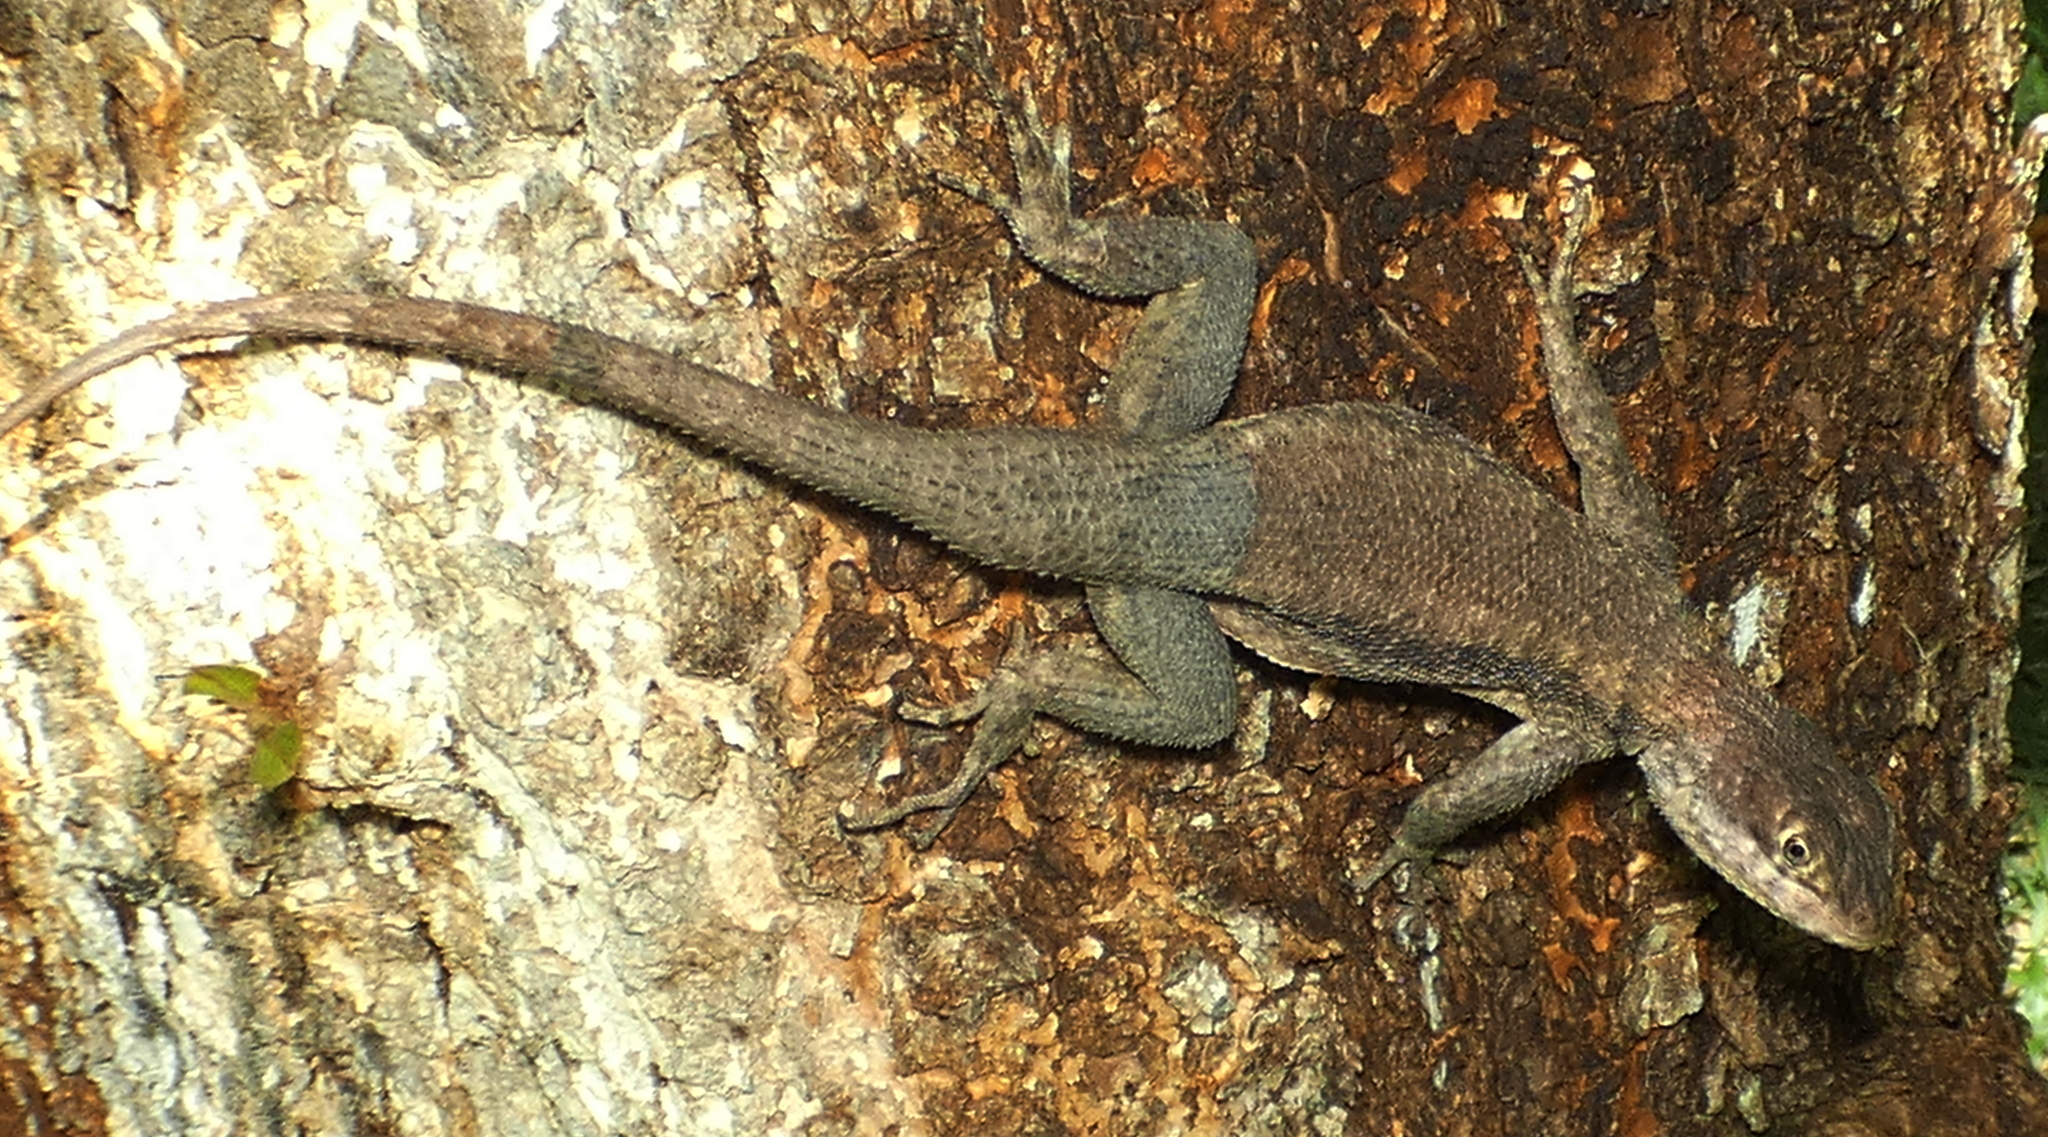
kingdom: Animalia
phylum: Chordata
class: Squamata
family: Tropiduridae
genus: Tropidurus
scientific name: Tropidurus hispidus
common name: Peters' lava lizard
